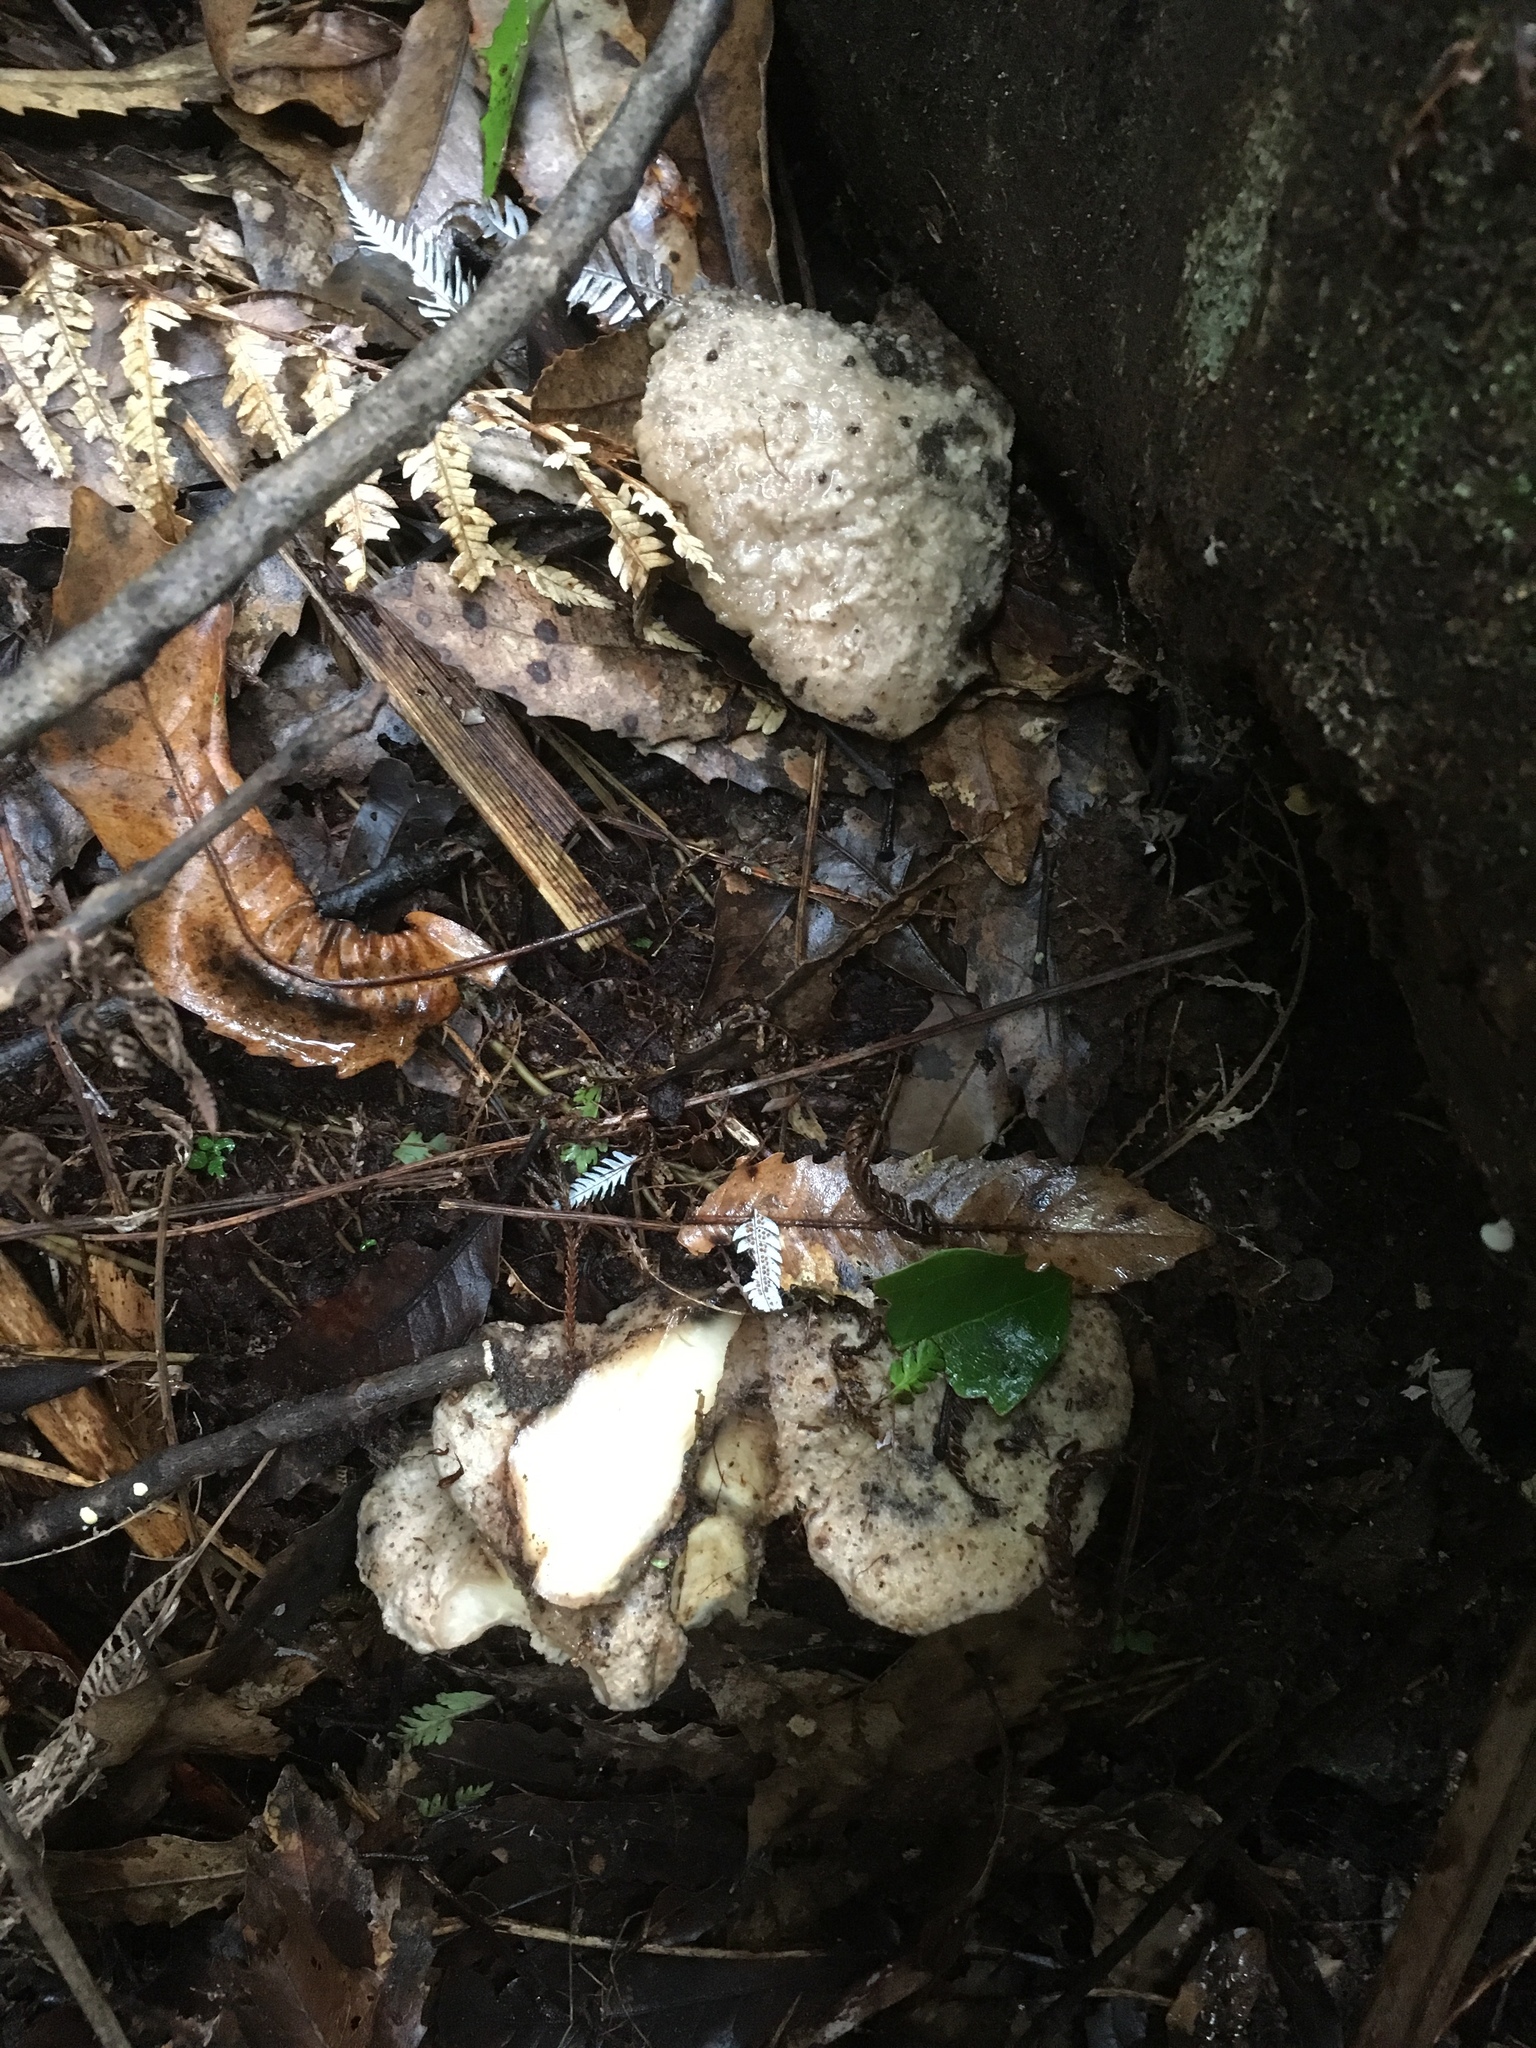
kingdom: Fungi
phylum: Basidiomycota
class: Agaricomycetes
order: Polyporales
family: Laetiporaceae
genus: Laetiporus
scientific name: Laetiporus portentosus
